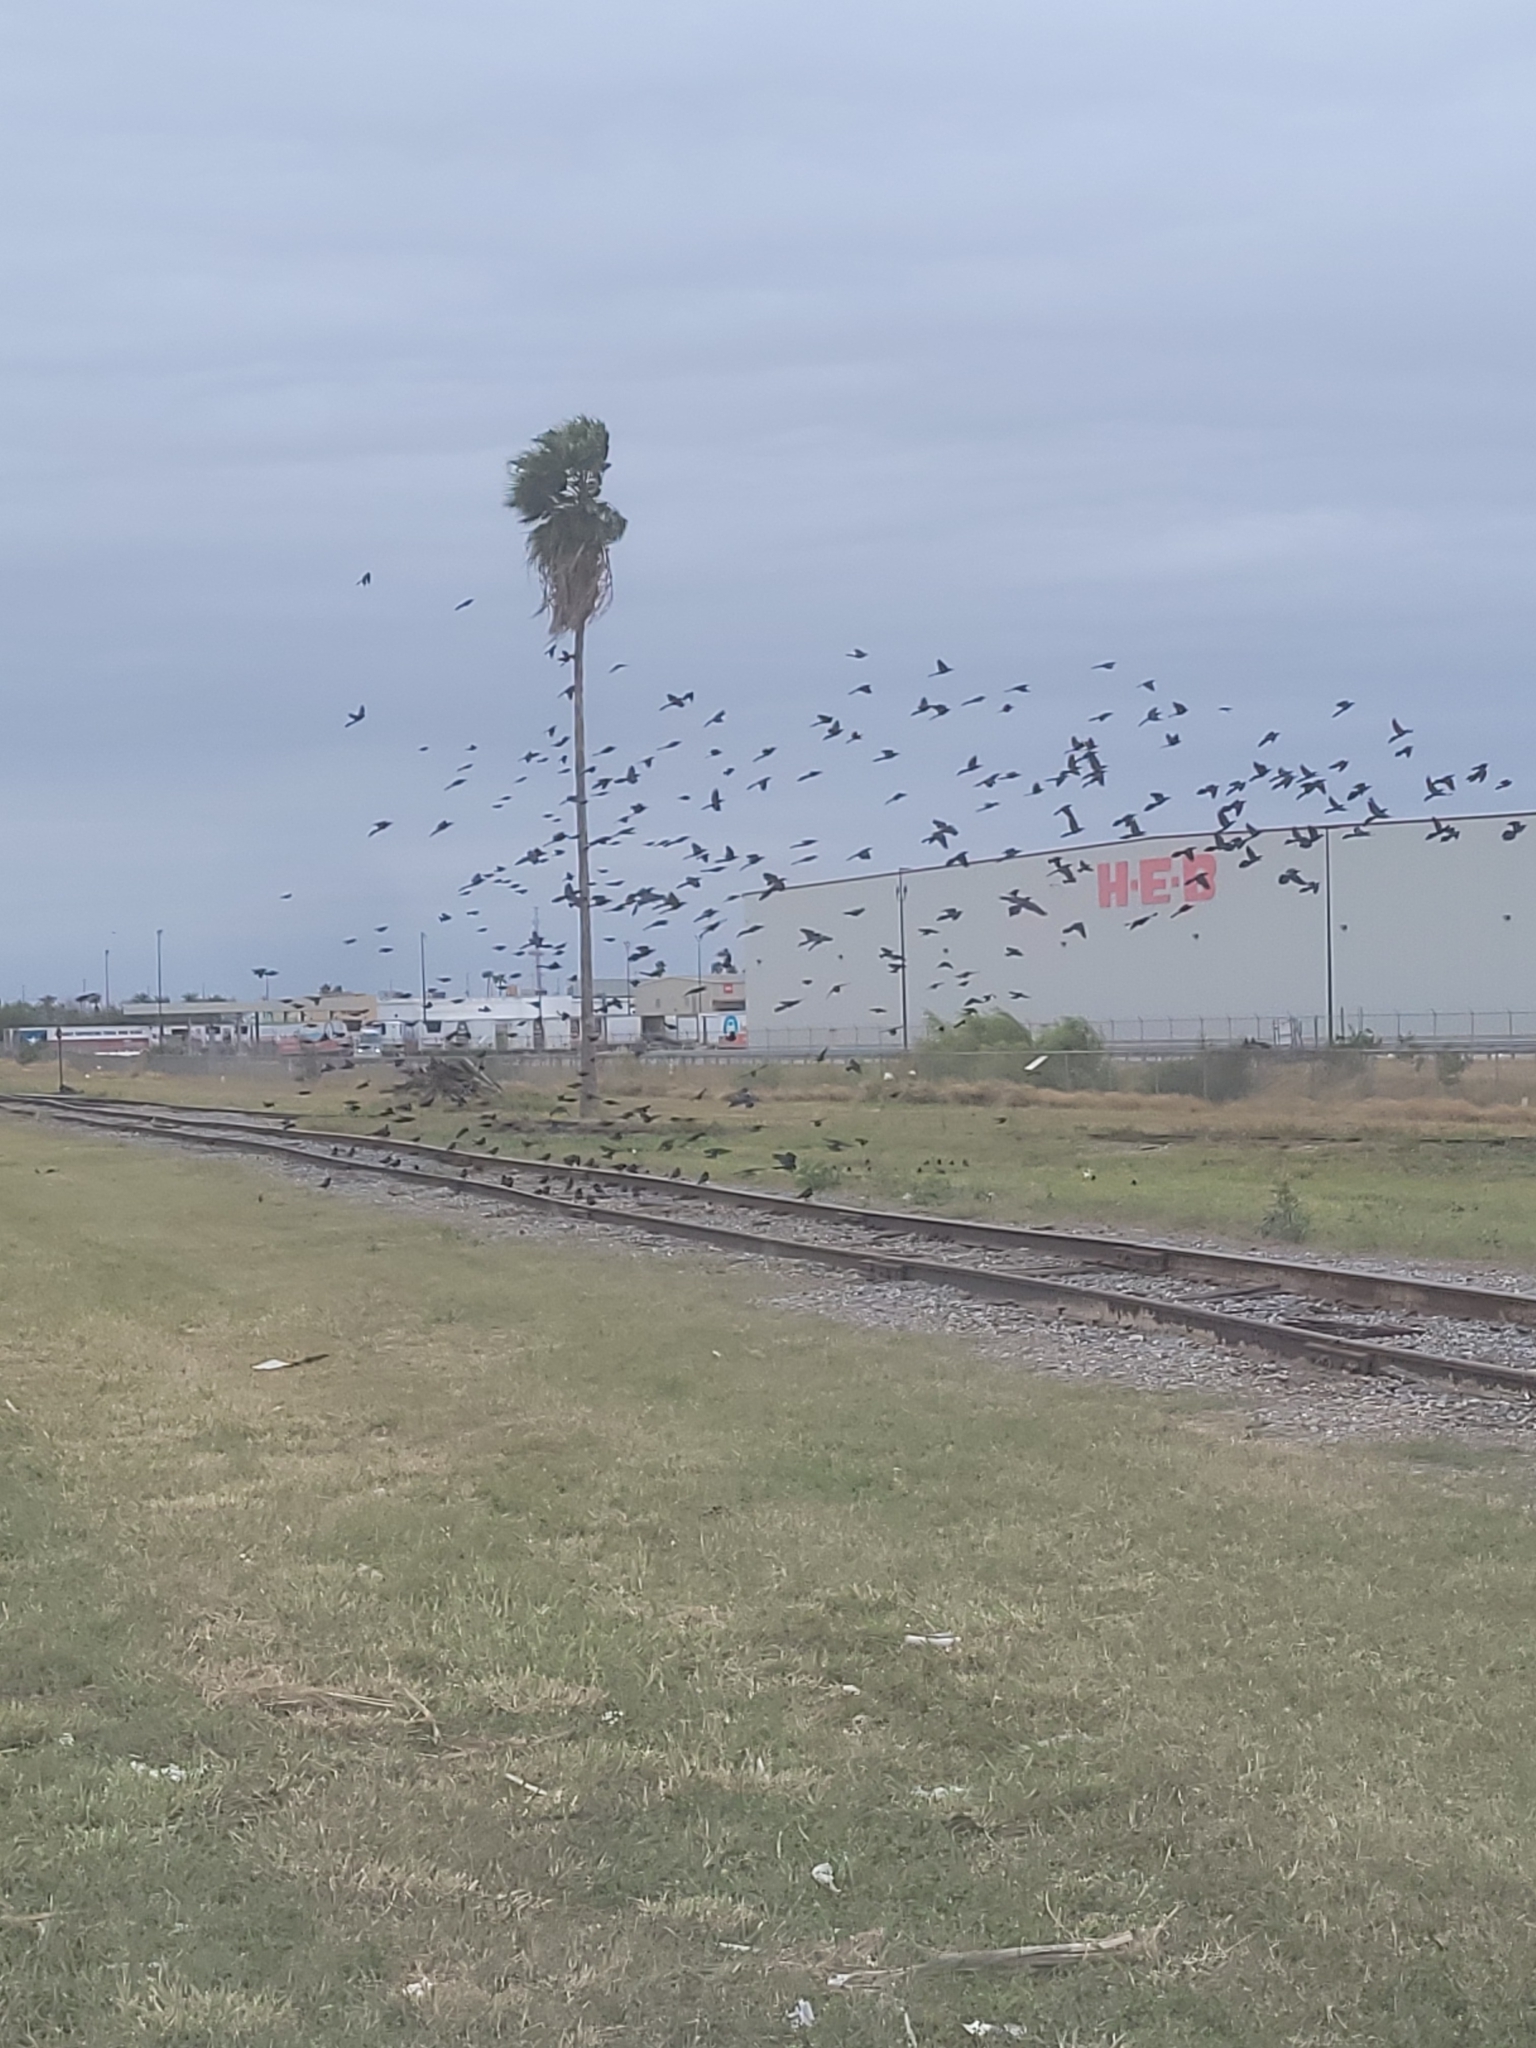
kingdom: Animalia
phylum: Chordata
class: Aves
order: Passeriformes
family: Icteridae
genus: Molothrus
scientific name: Molothrus aeneus
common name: Bronzed cowbird
